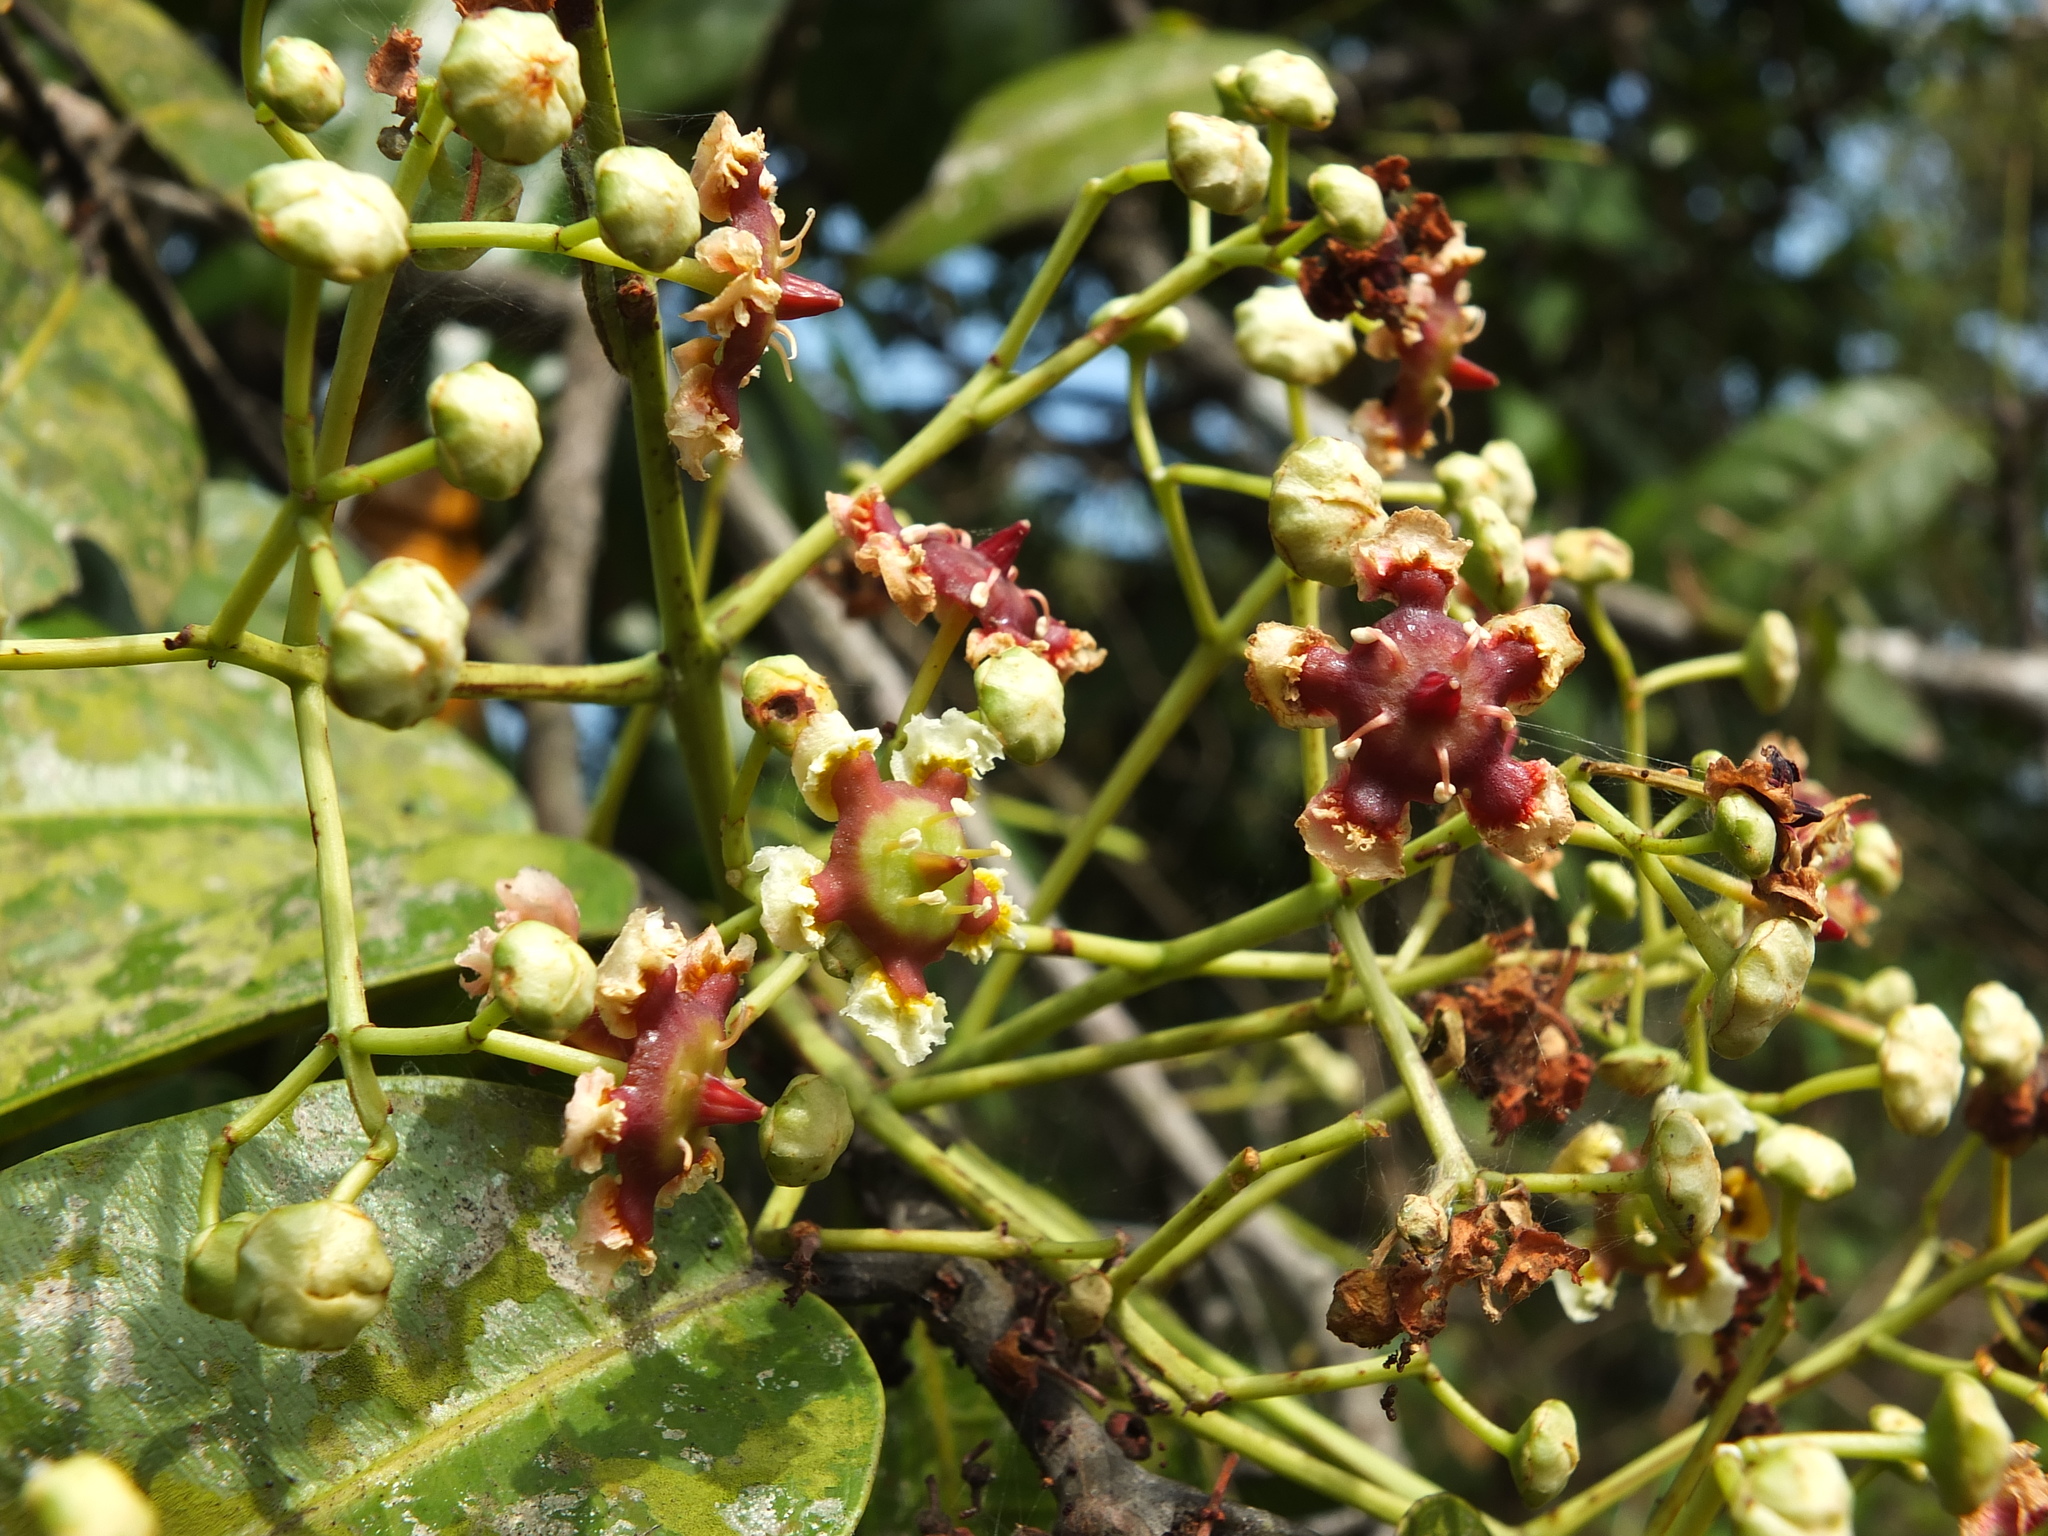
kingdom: Plantae
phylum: Tracheophyta
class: Magnoliopsida
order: Celastrales
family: Celastraceae
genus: Lophopetalum
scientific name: Lophopetalum wightianum
